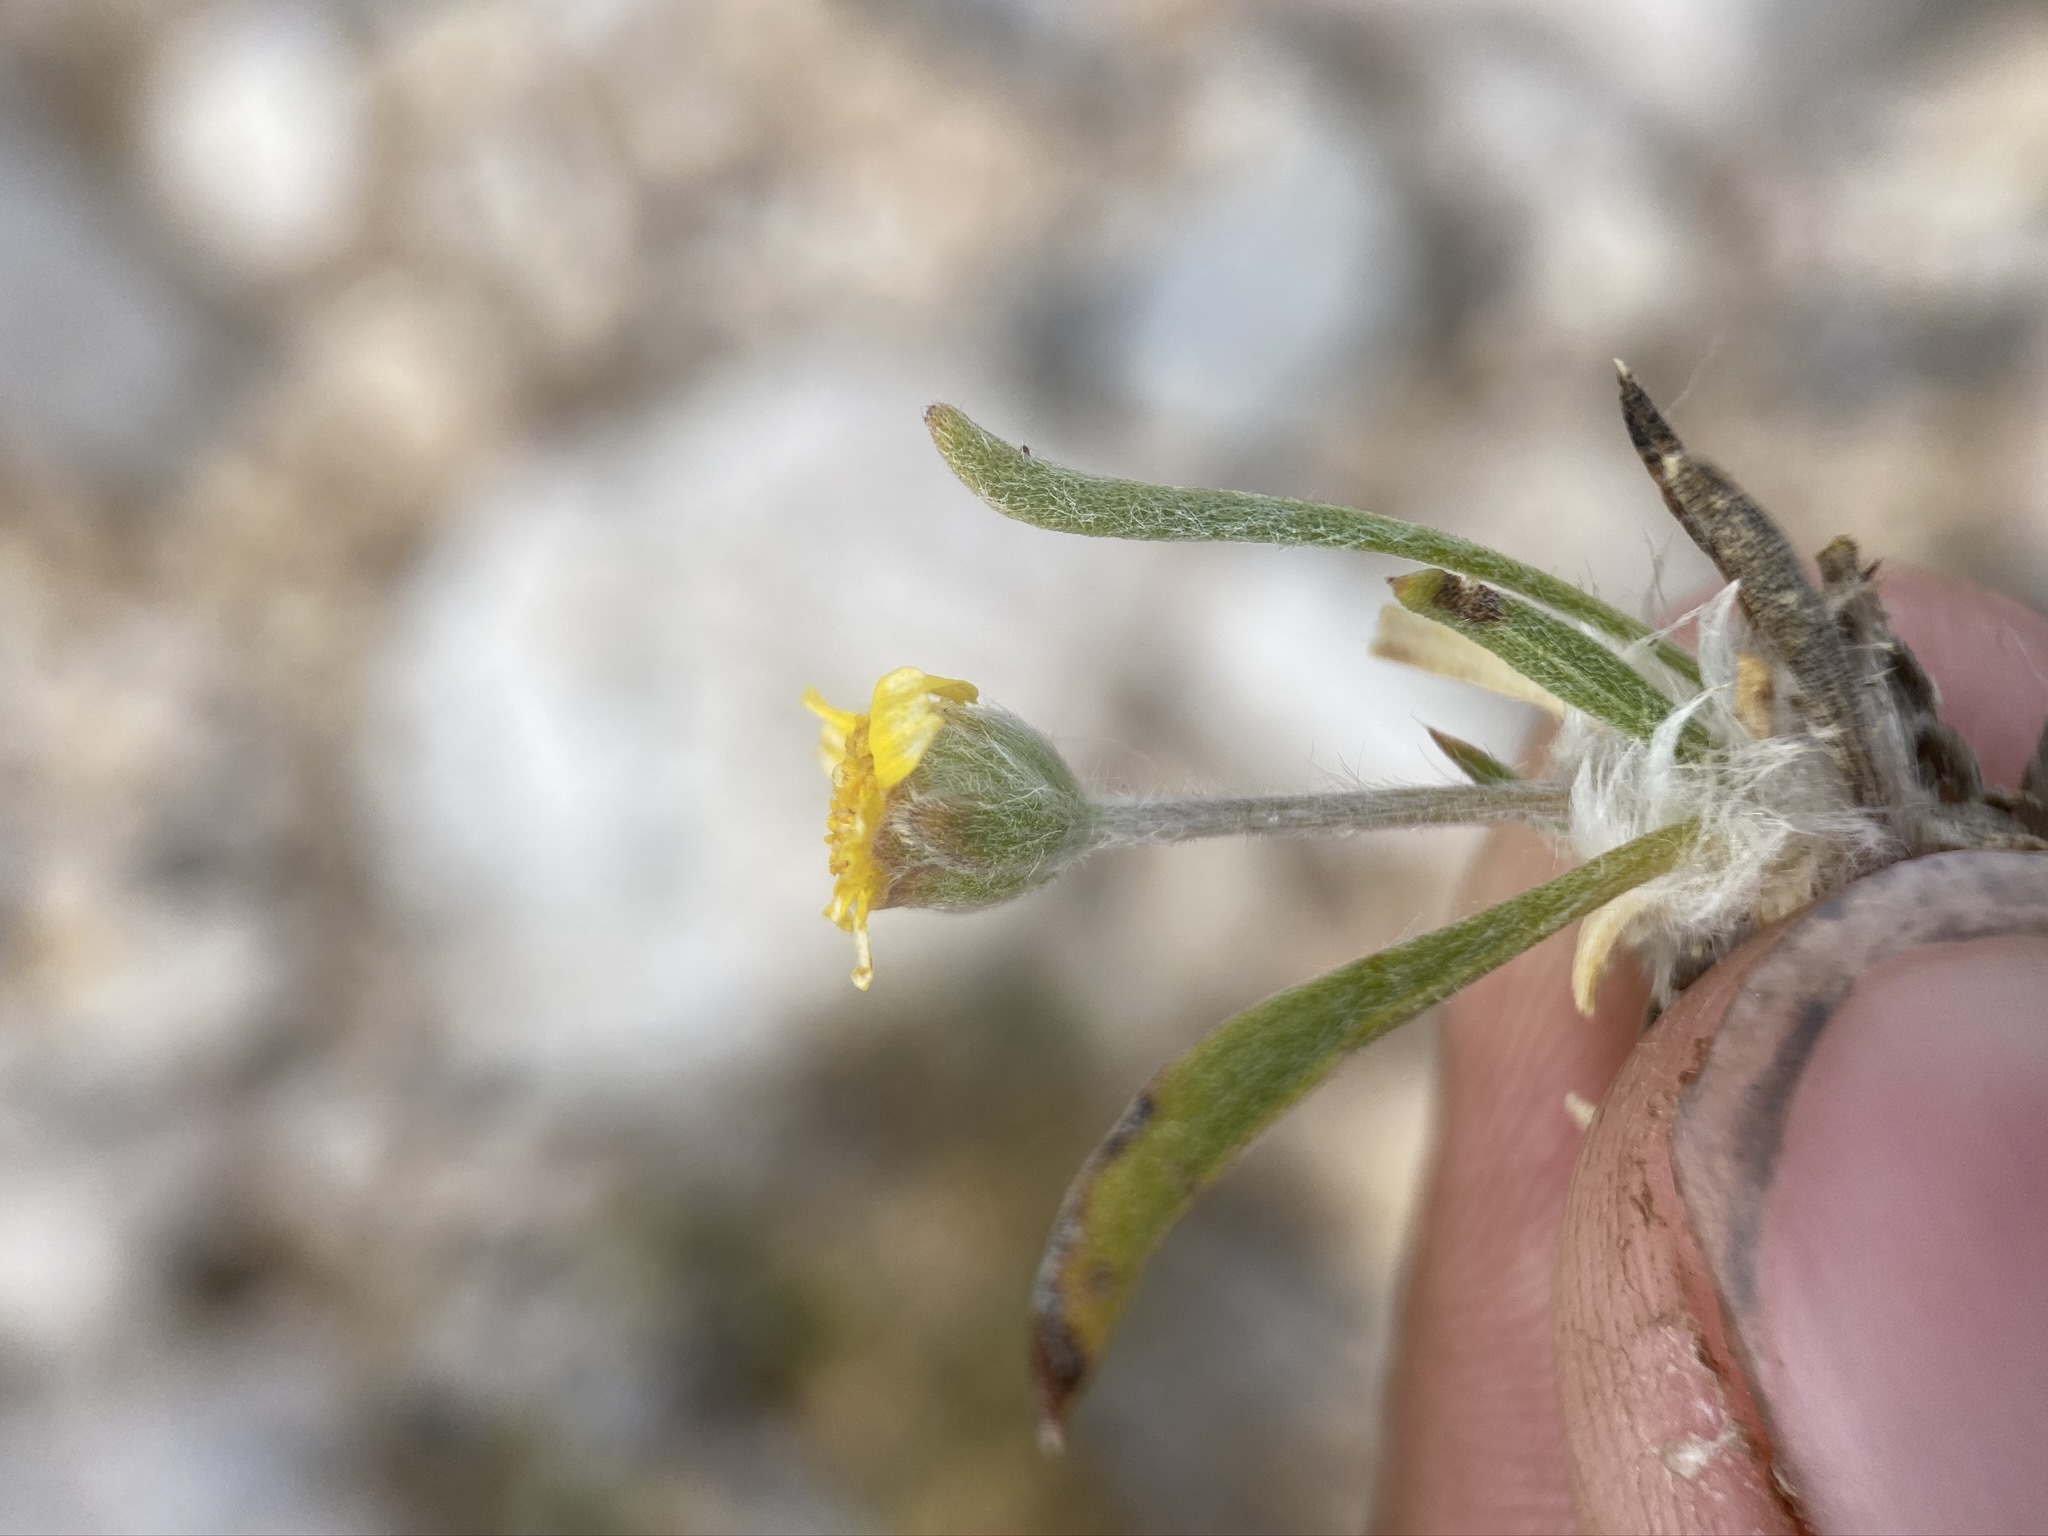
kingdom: Plantae
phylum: Tracheophyta
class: Magnoliopsida
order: Asterales
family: Asteraceae
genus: Tetraneuris
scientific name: Tetraneuris acaulis
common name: Butte marigold
